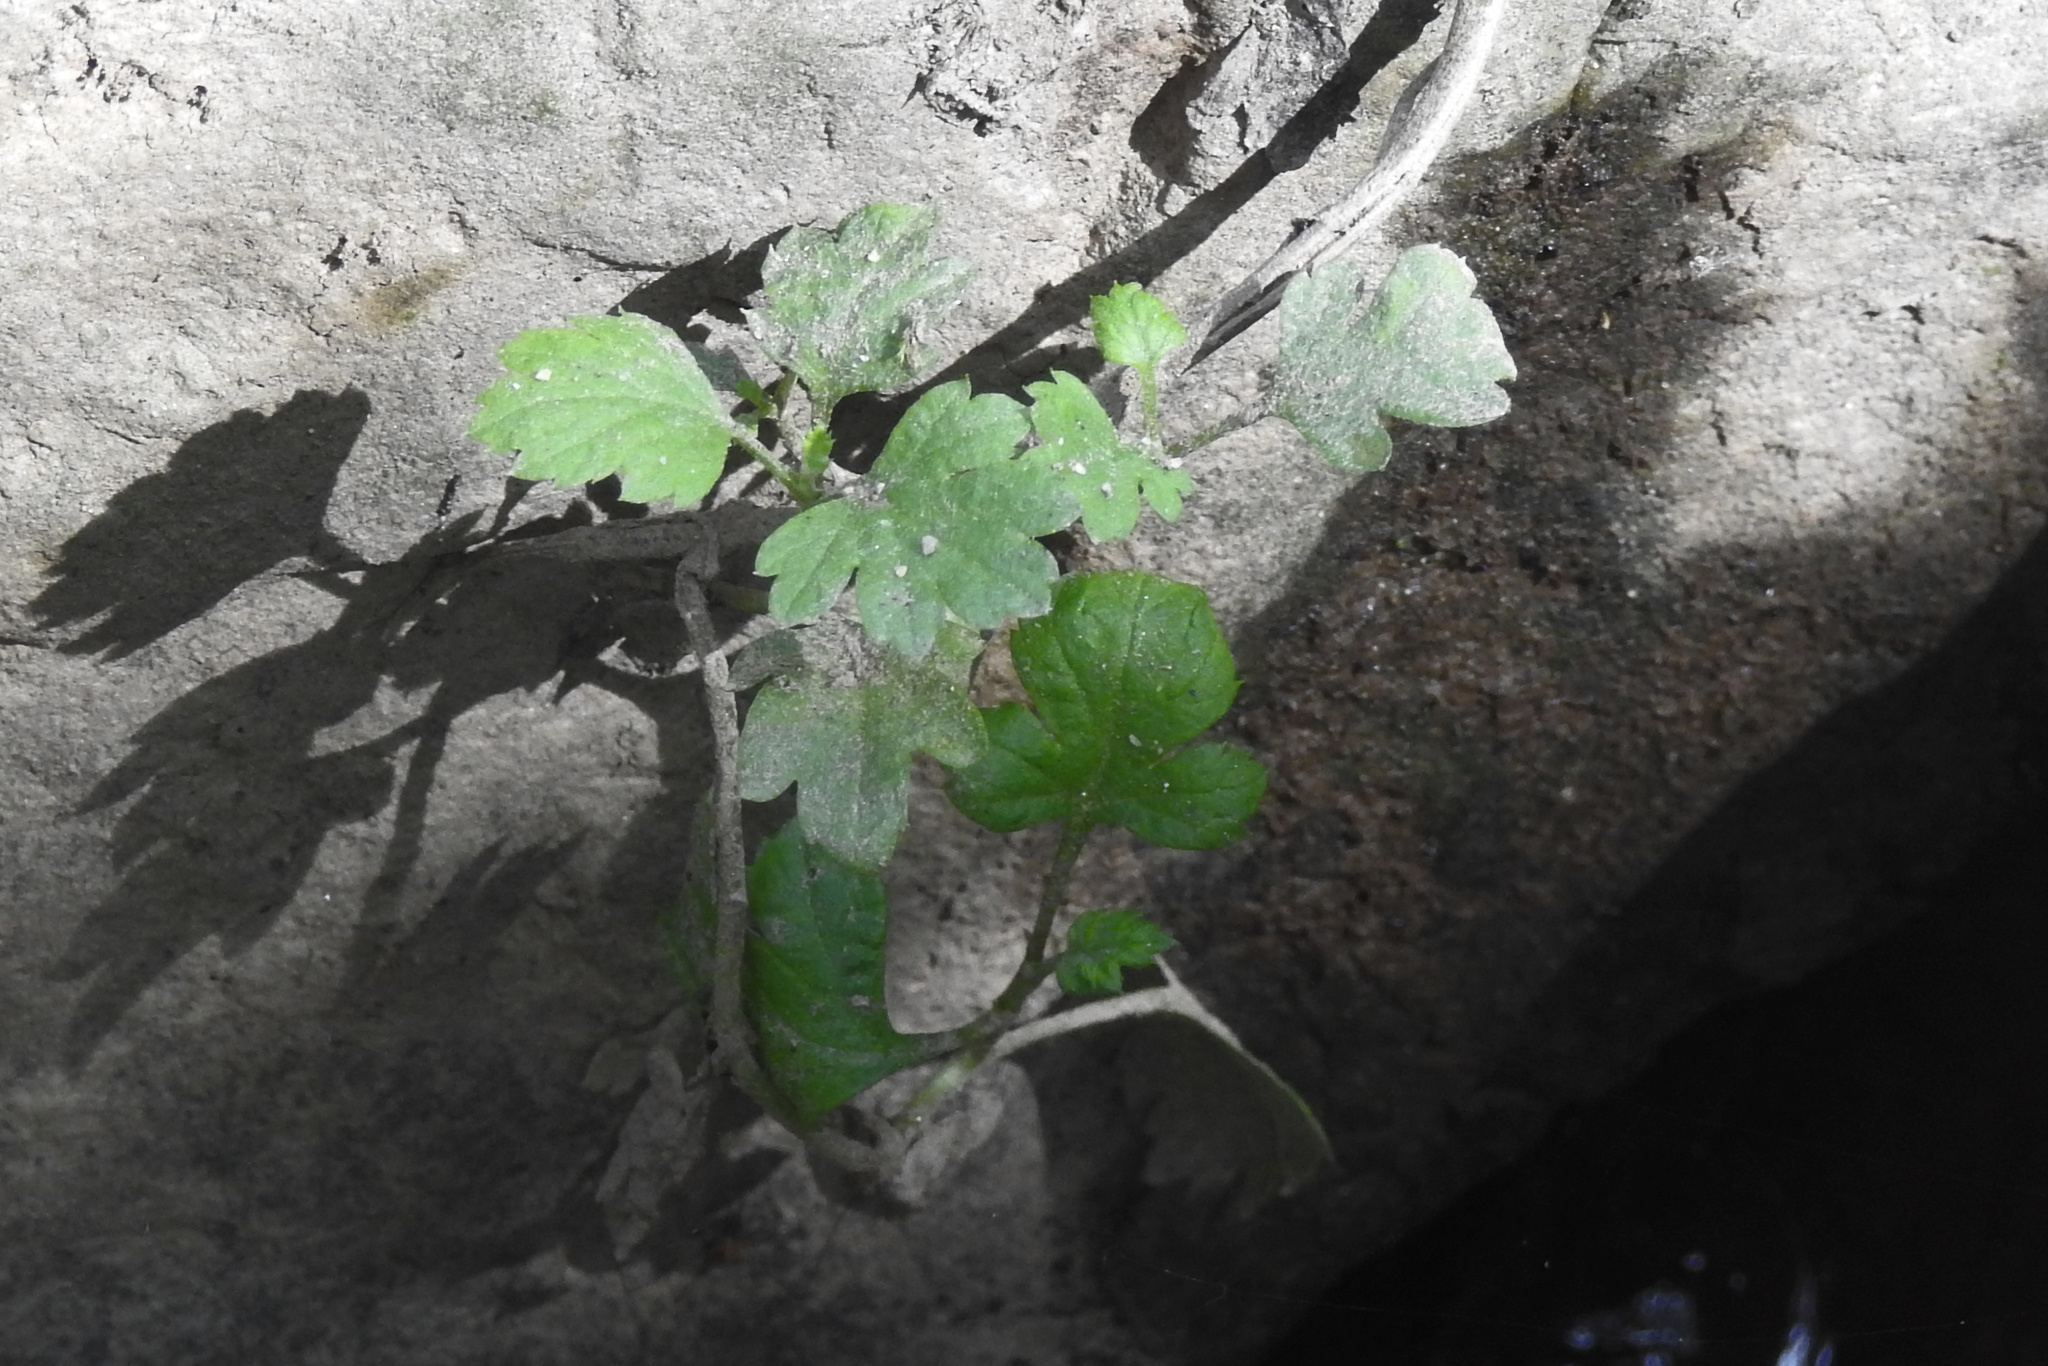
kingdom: Plantae
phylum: Tracheophyta
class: Magnoliopsida
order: Asterales
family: Asteraceae
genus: Artemisia
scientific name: Artemisia vulgaris
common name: Mugwort
